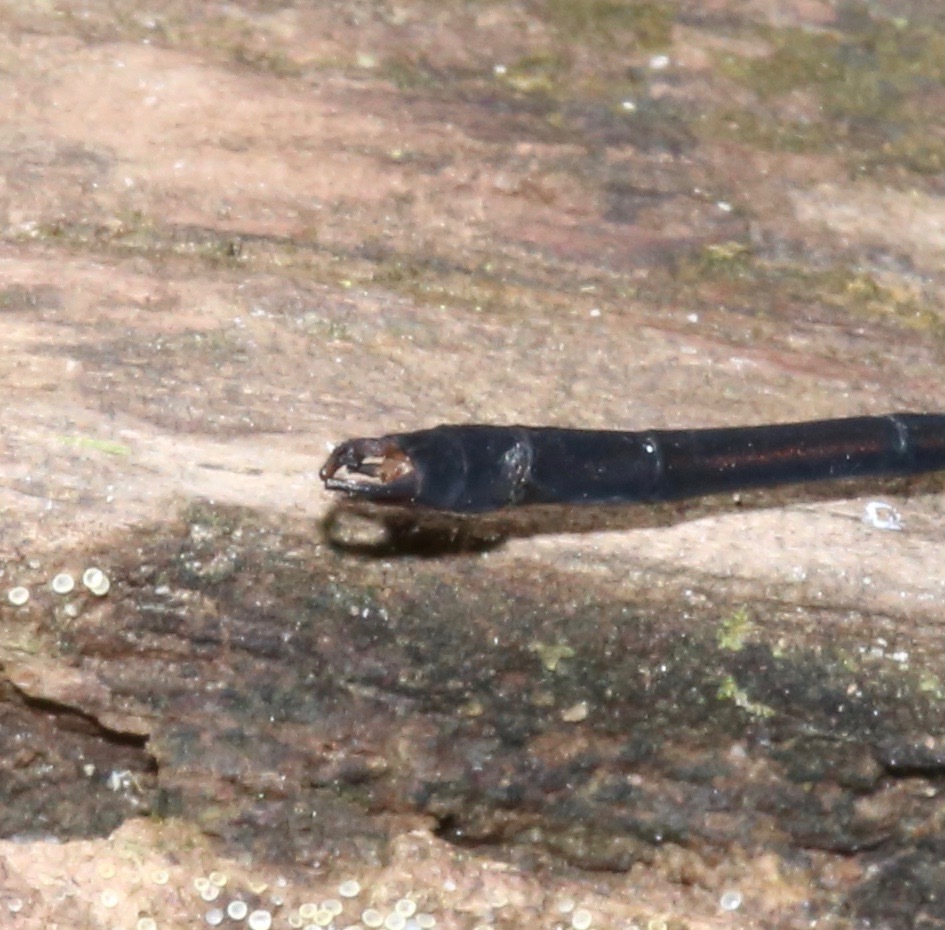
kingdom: Animalia
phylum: Arthropoda
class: Insecta
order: Odonata
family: Calopterygidae
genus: Hetaerina
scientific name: Hetaerina cruentata
